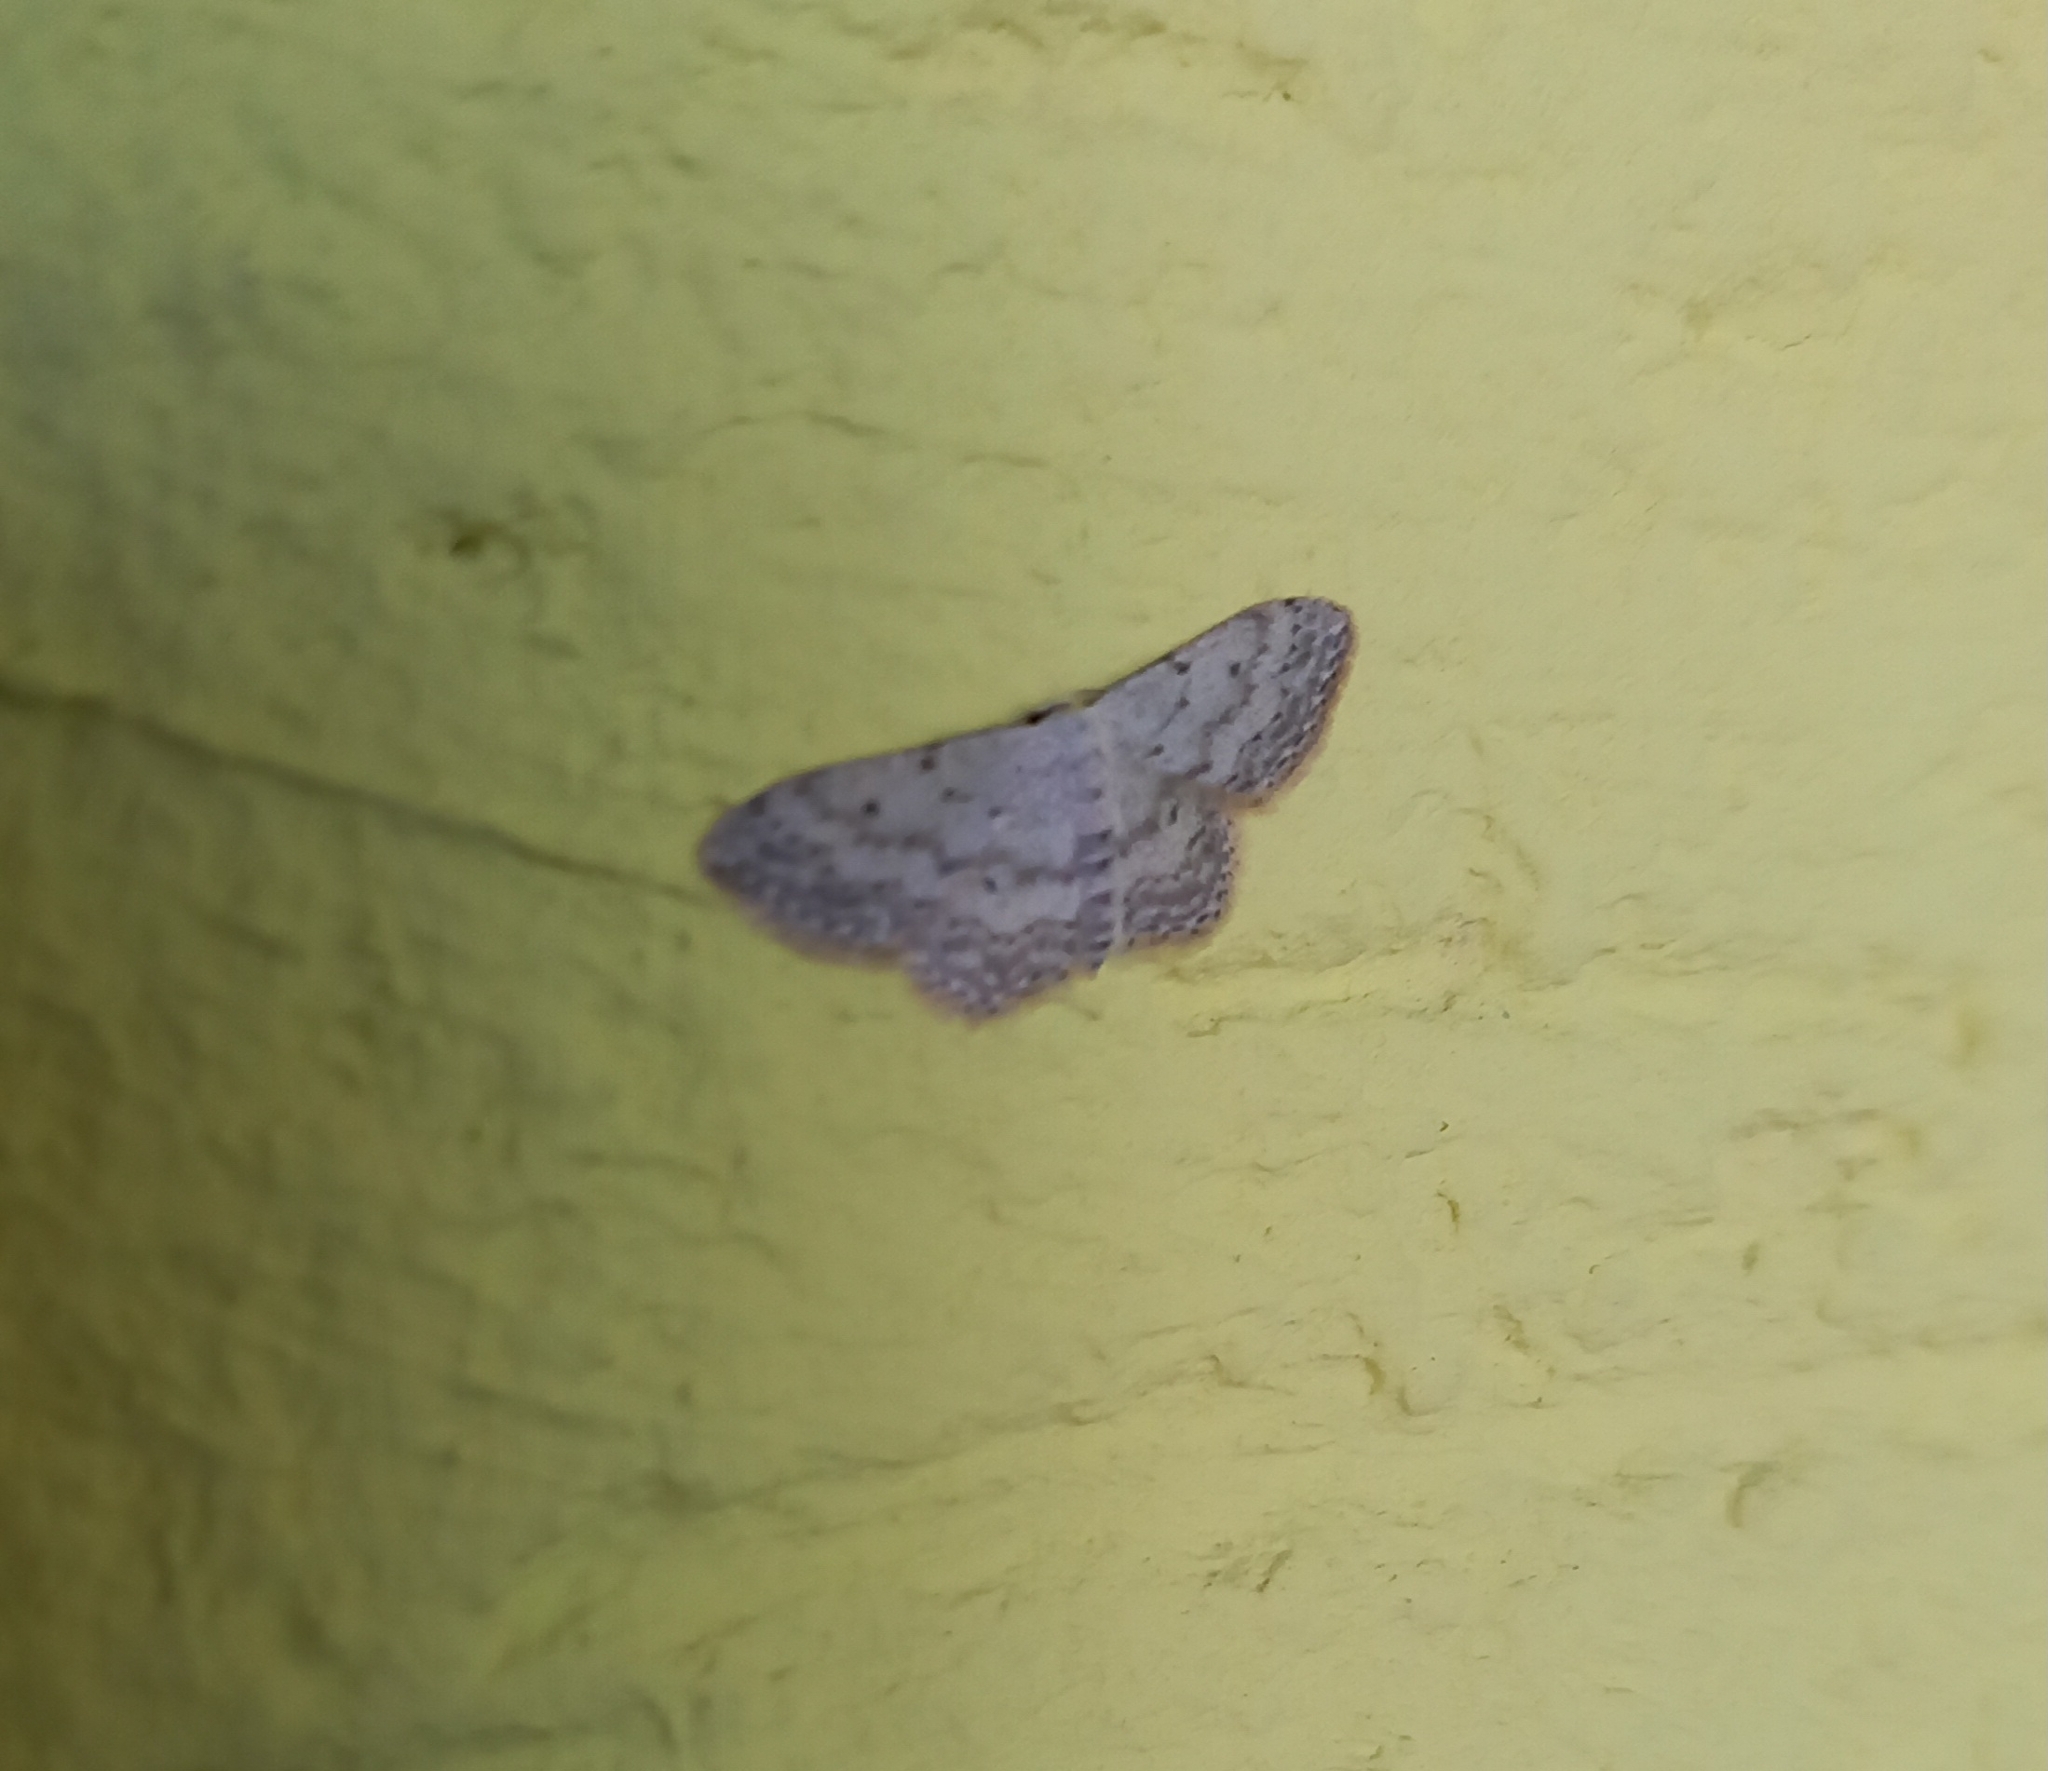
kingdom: Animalia
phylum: Arthropoda
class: Insecta
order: Lepidoptera
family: Geometridae
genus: Idaea
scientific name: Idaea seriata
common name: Small dusty wave
